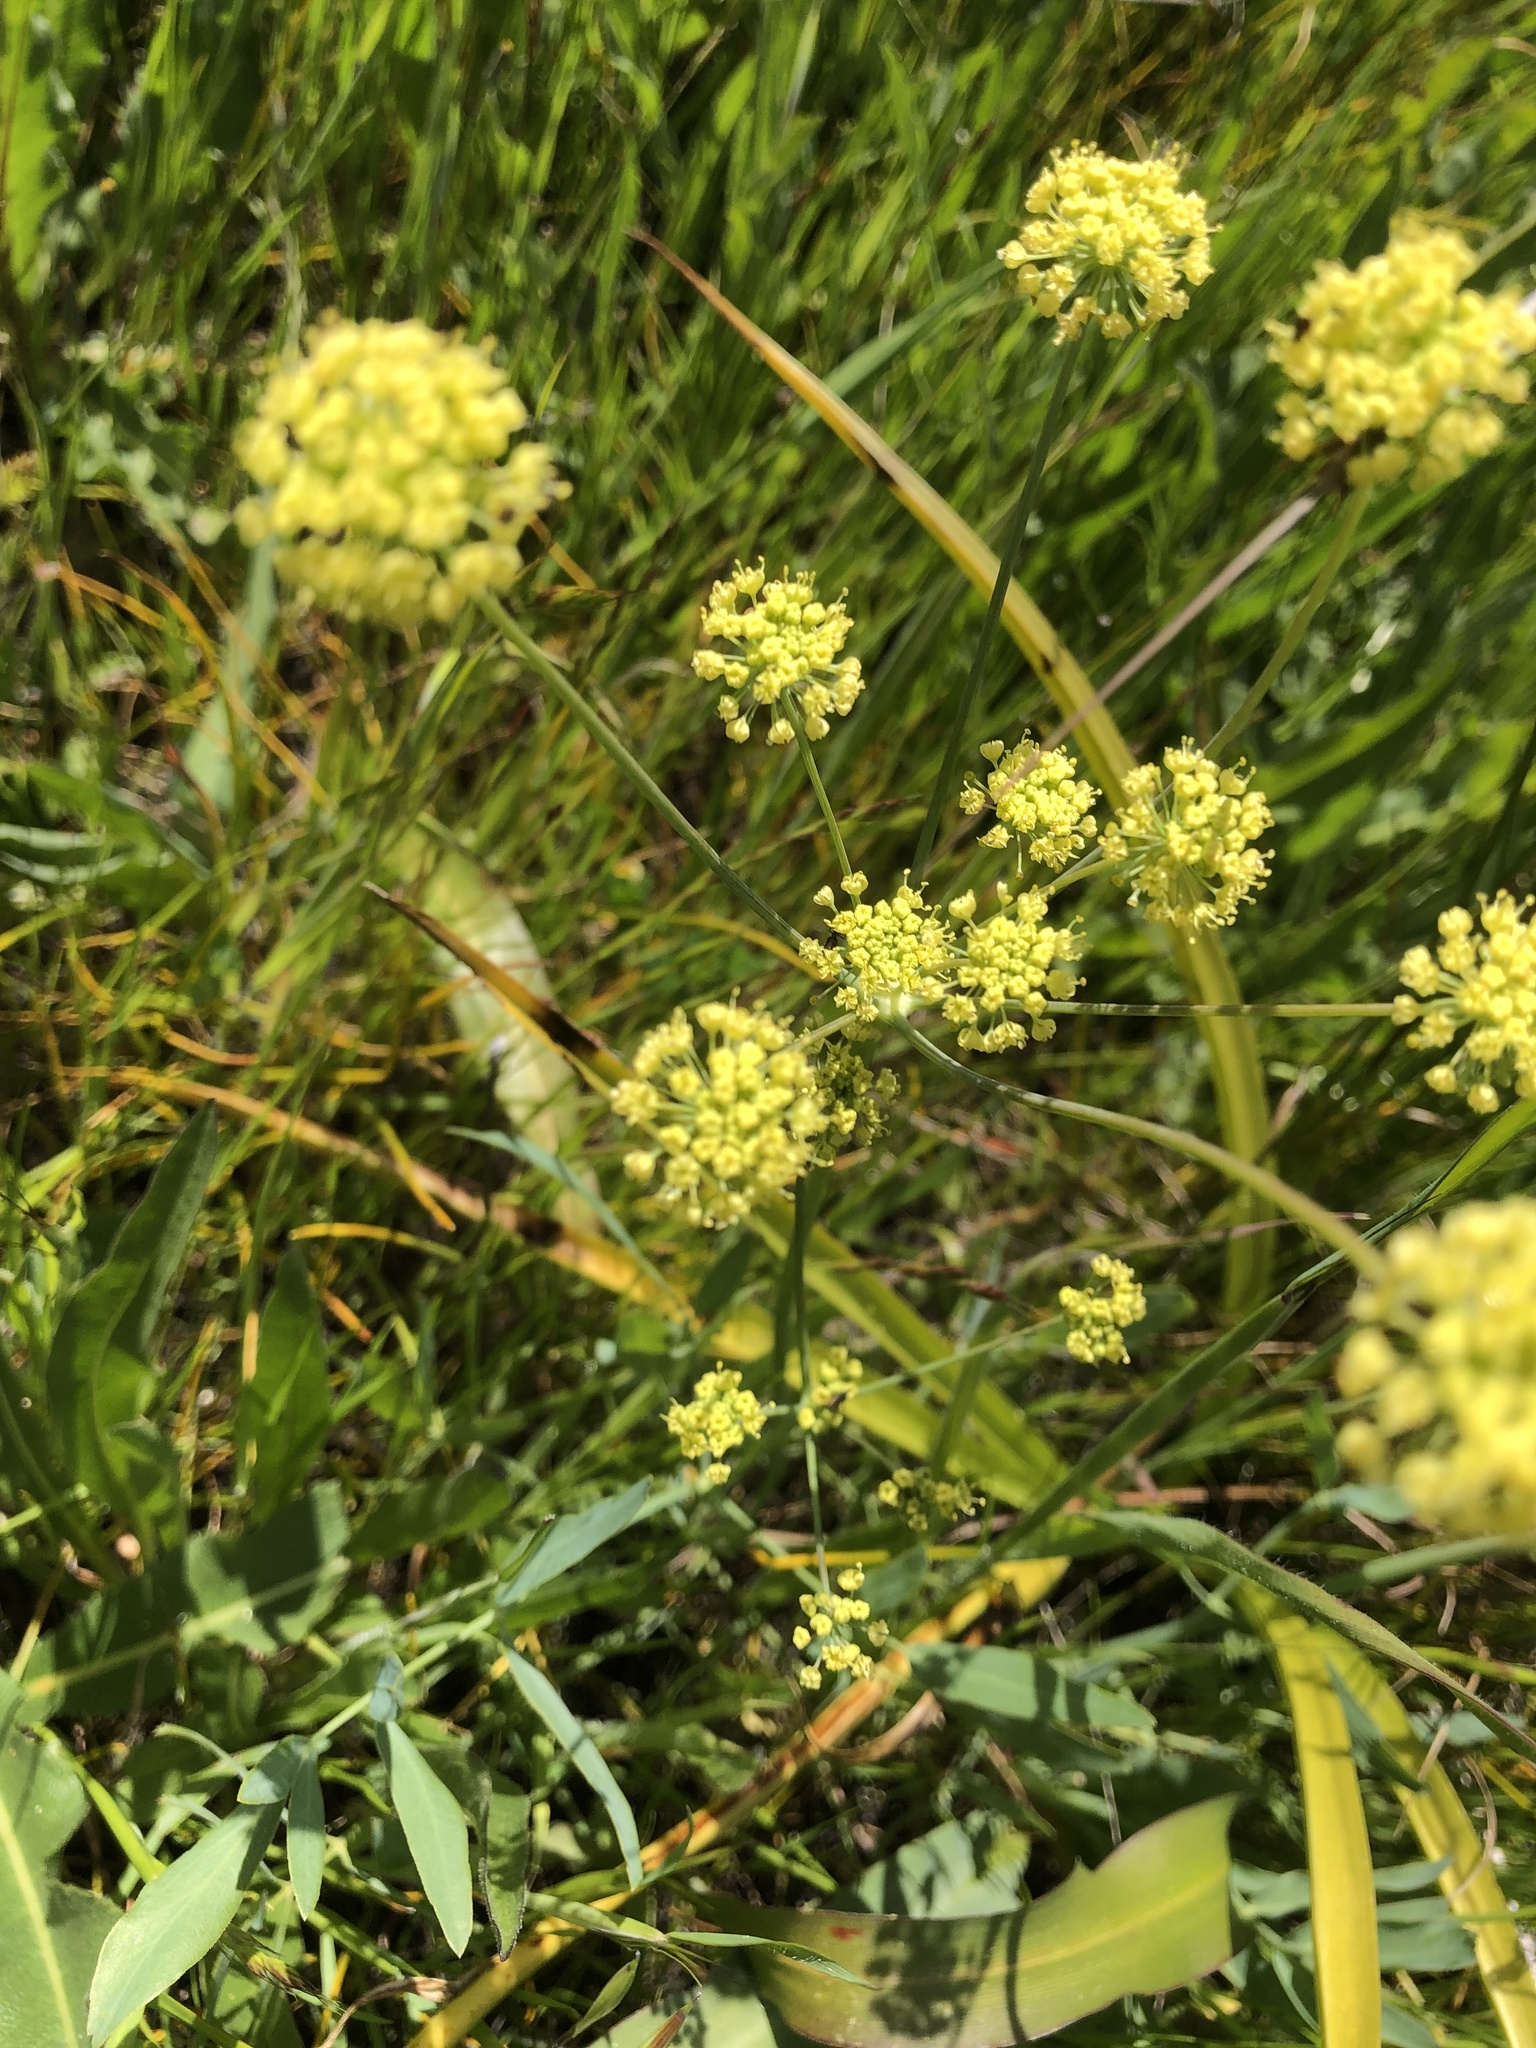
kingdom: Plantae
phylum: Tracheophyta
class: Magnoliopsida
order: Apiales
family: Apiaceae
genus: Lomatium
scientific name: Lomatium nudicaule
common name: Pestle lomatium
